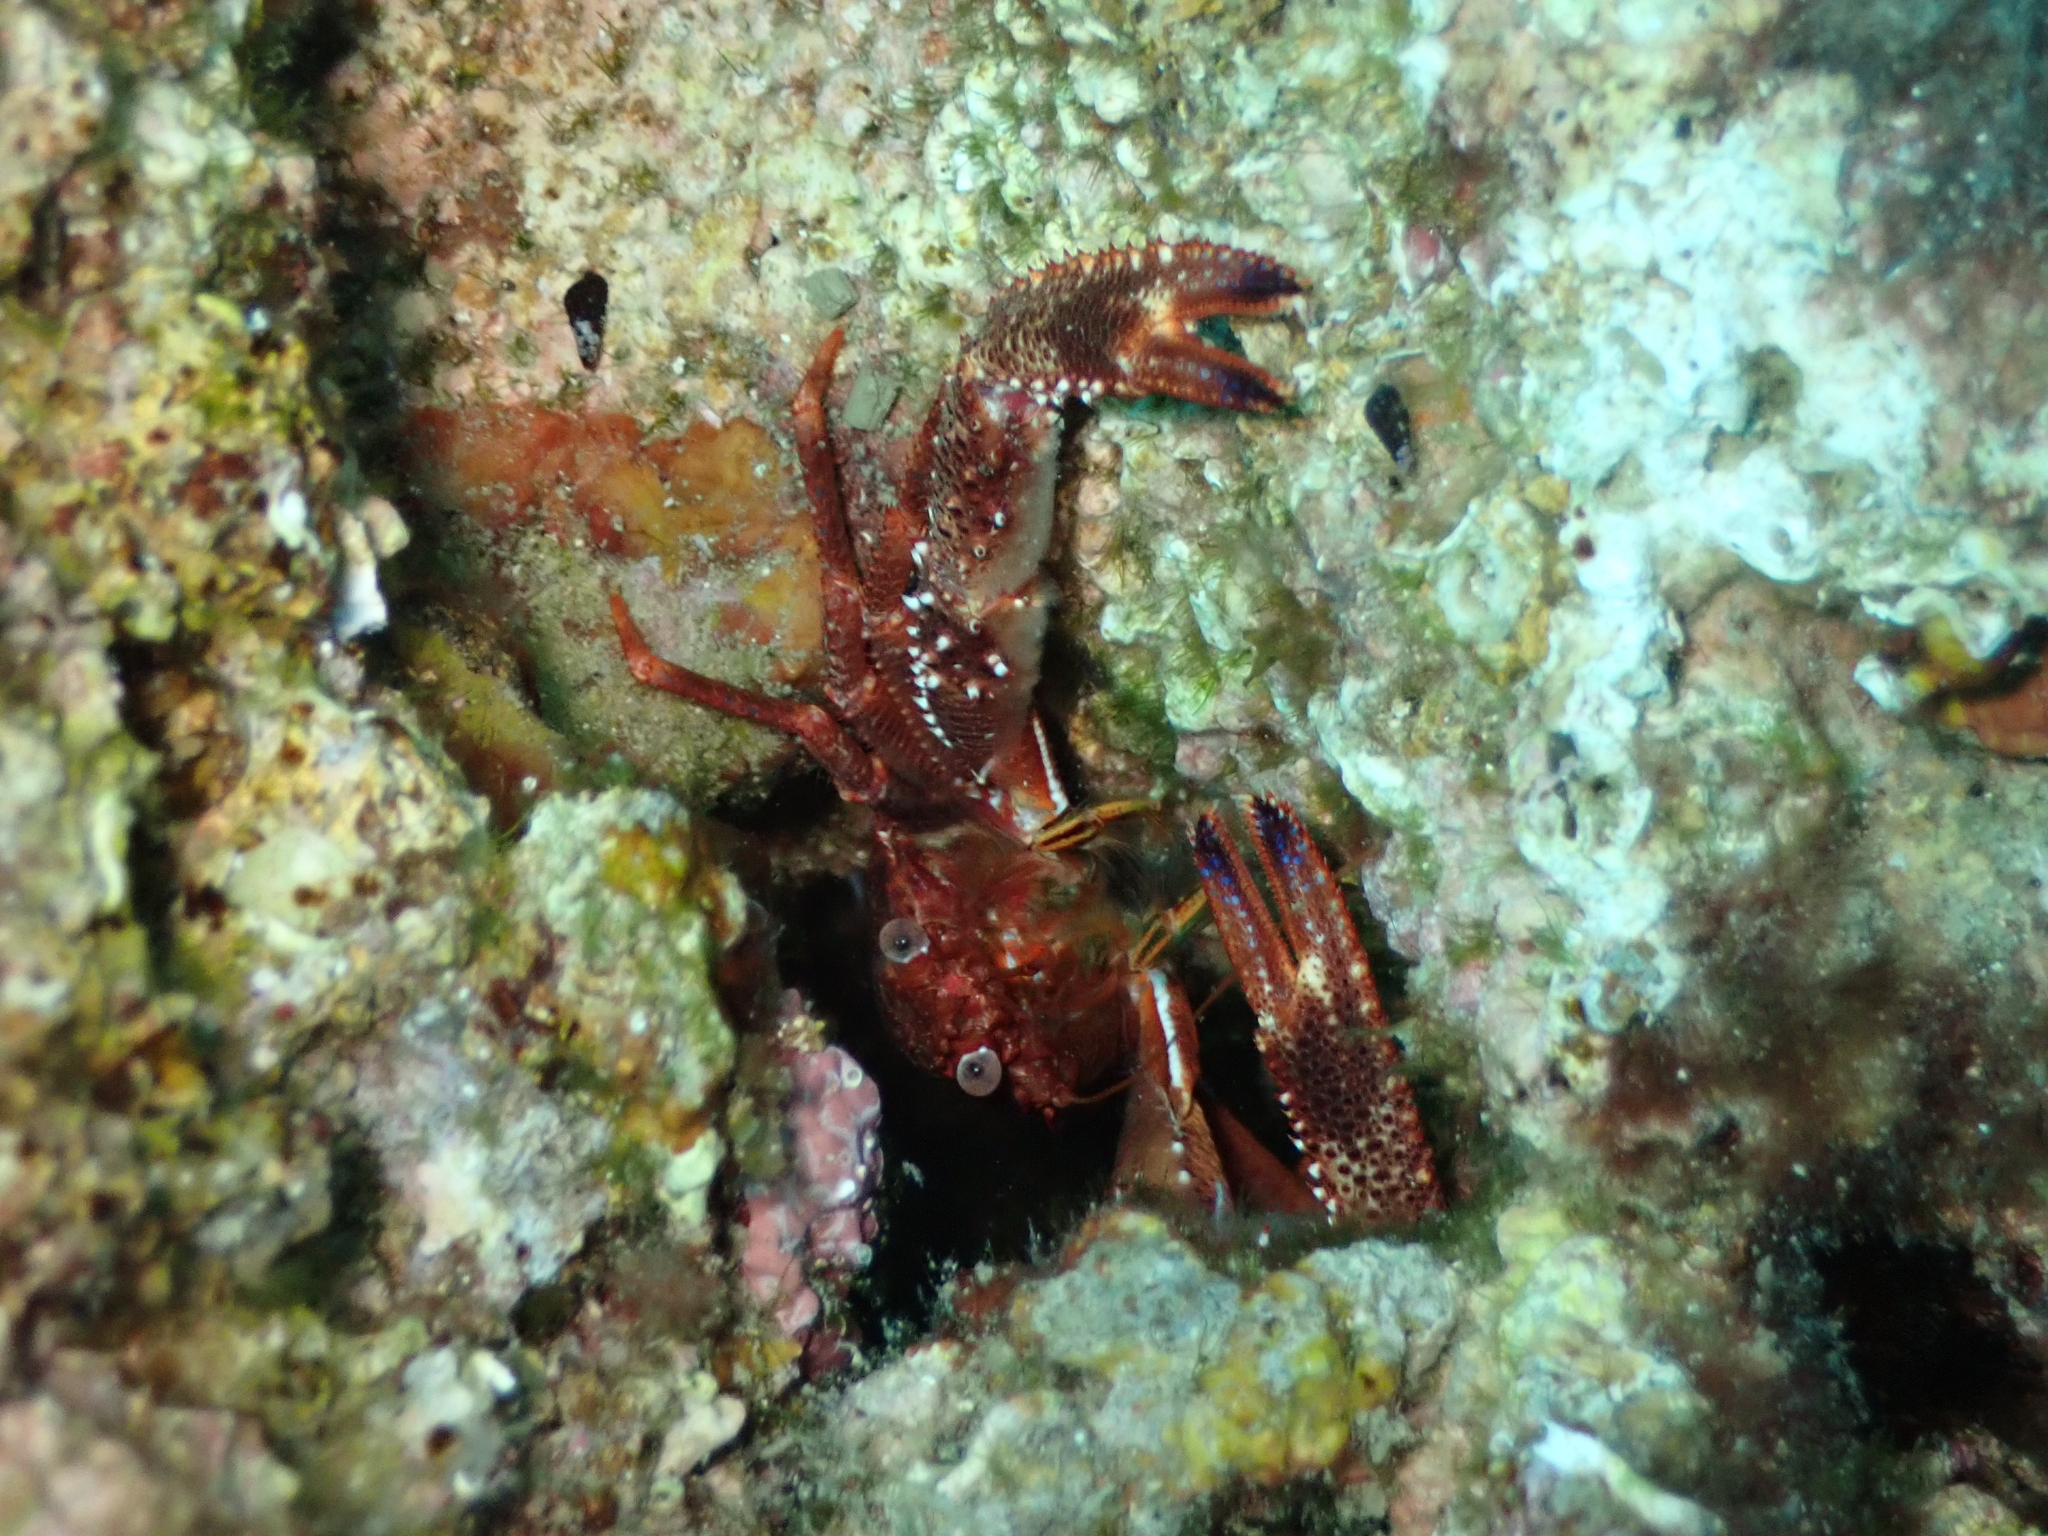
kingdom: Animalia
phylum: Arthropoda
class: Malacostraca
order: Decapoda
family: Galatheidae
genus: Galathea
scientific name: Galathea squamifera
